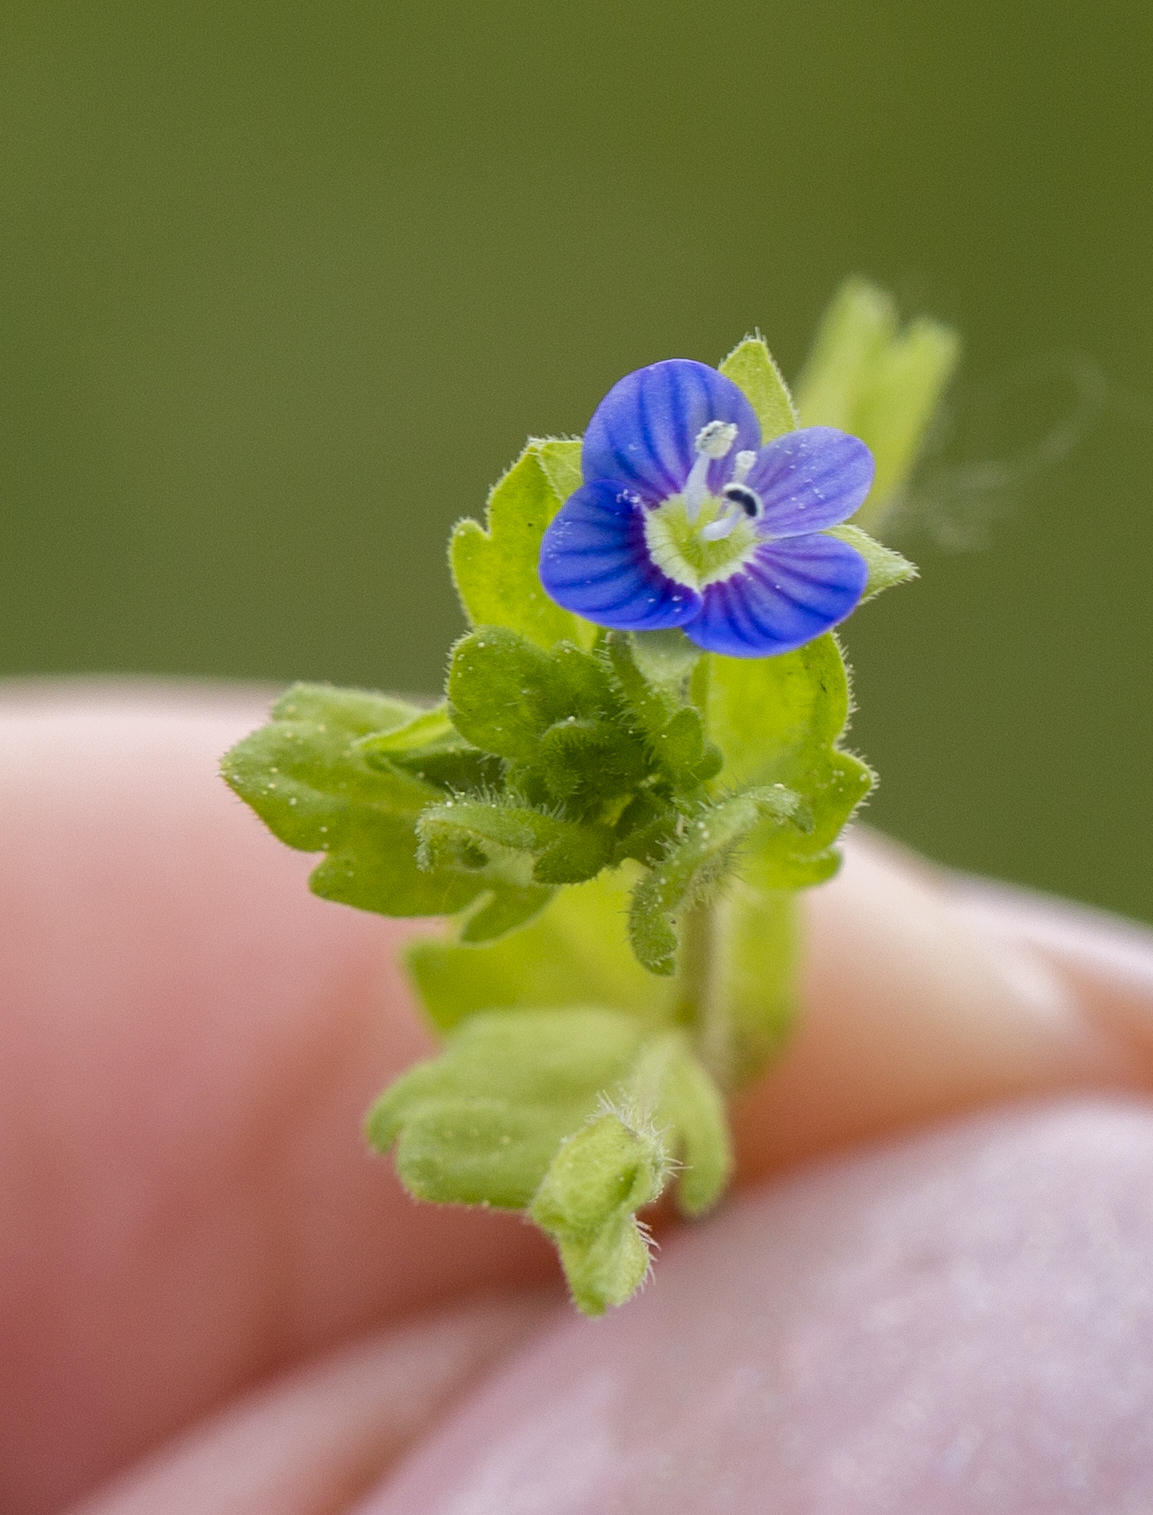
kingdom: Plantae
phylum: Tracheophyta
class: Magnoliopsida
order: Lamiales
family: Plantaginaceae
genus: Veronica
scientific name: Veronica polita
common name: Grey field-speedwell
